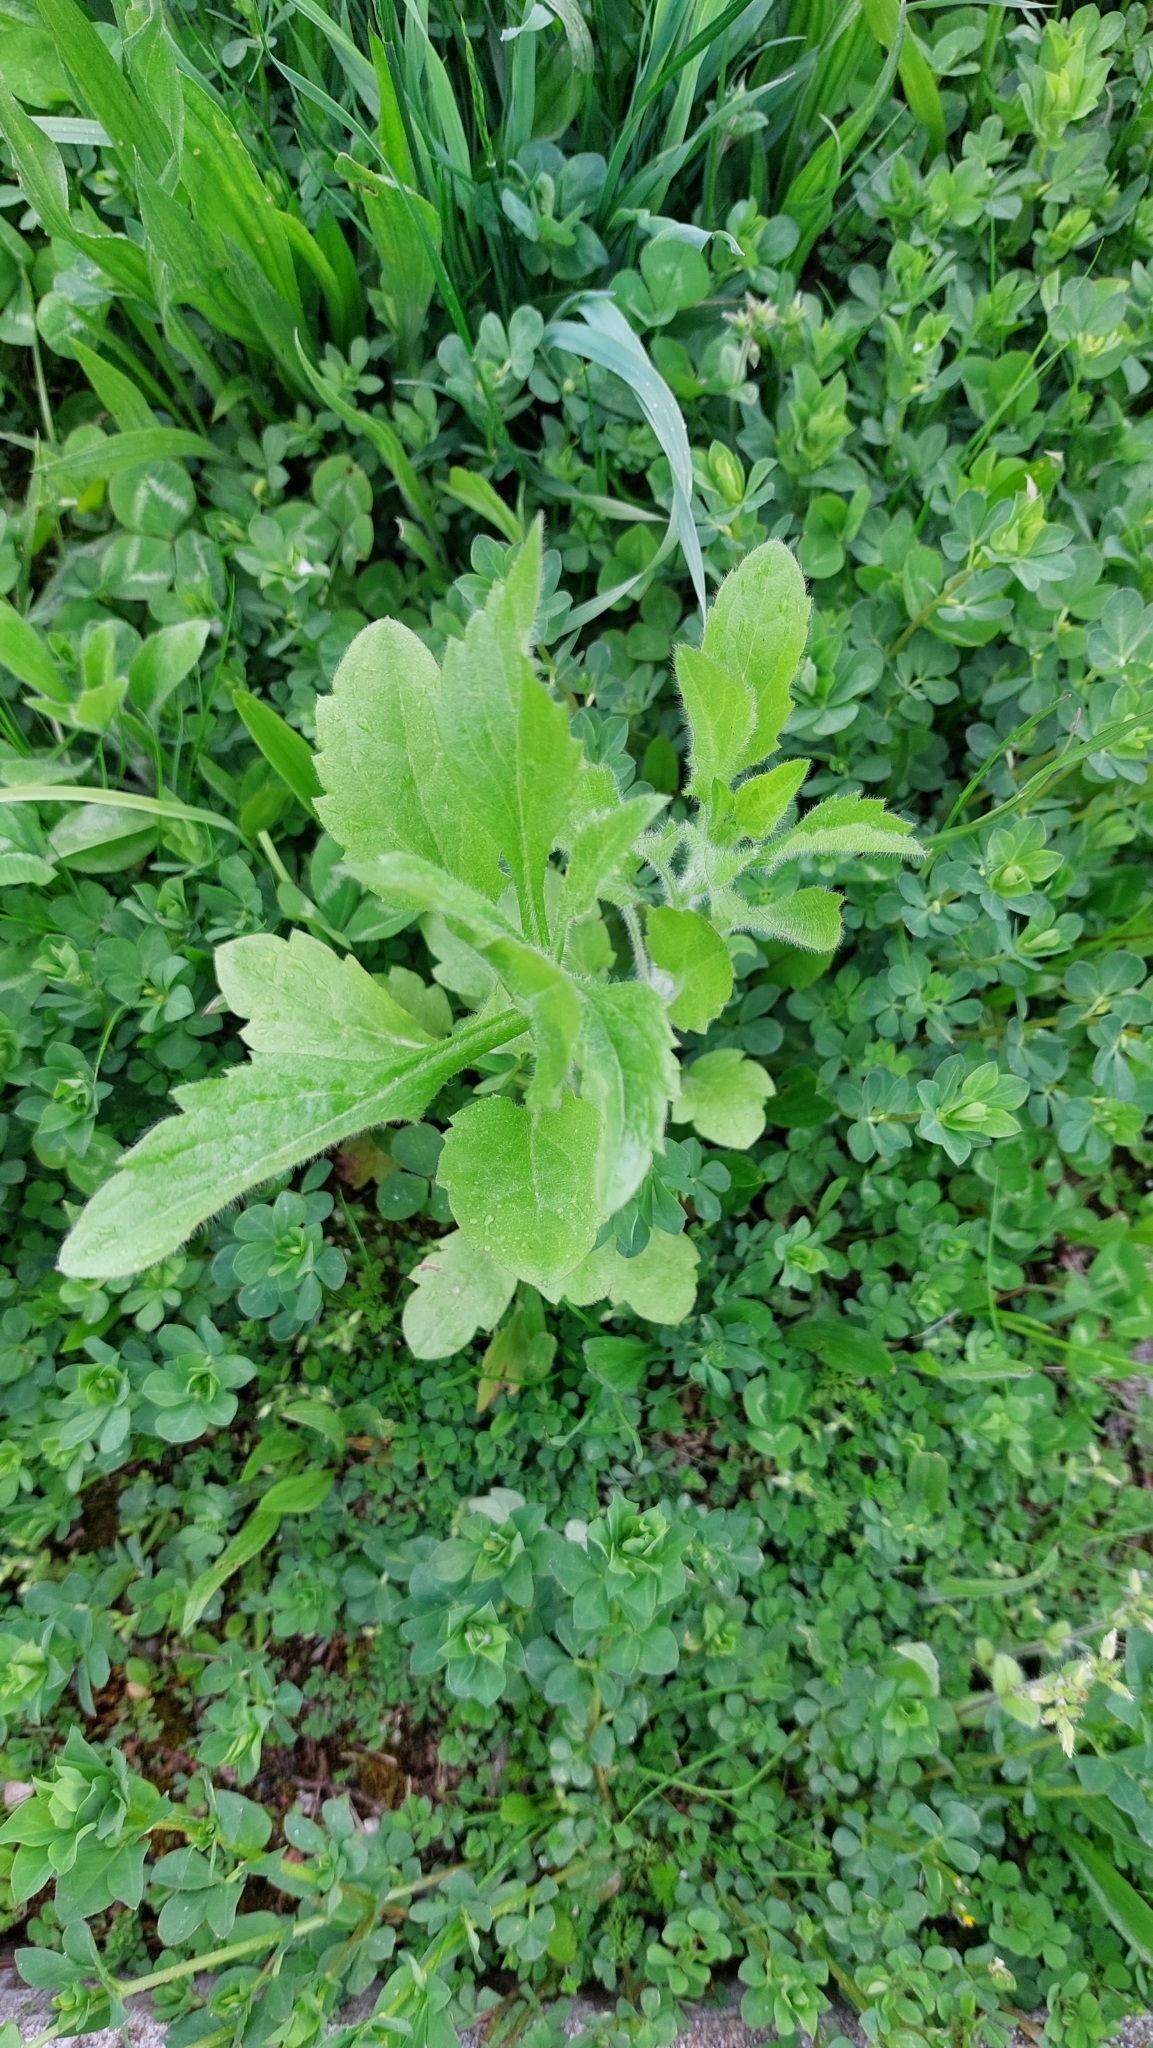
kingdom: Plantae
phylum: Tracheophyta
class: Magnoliopsida
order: Asterales
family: Asteraceae
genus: Erigeron
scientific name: Erigeron annuus
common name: Tall fleabane
